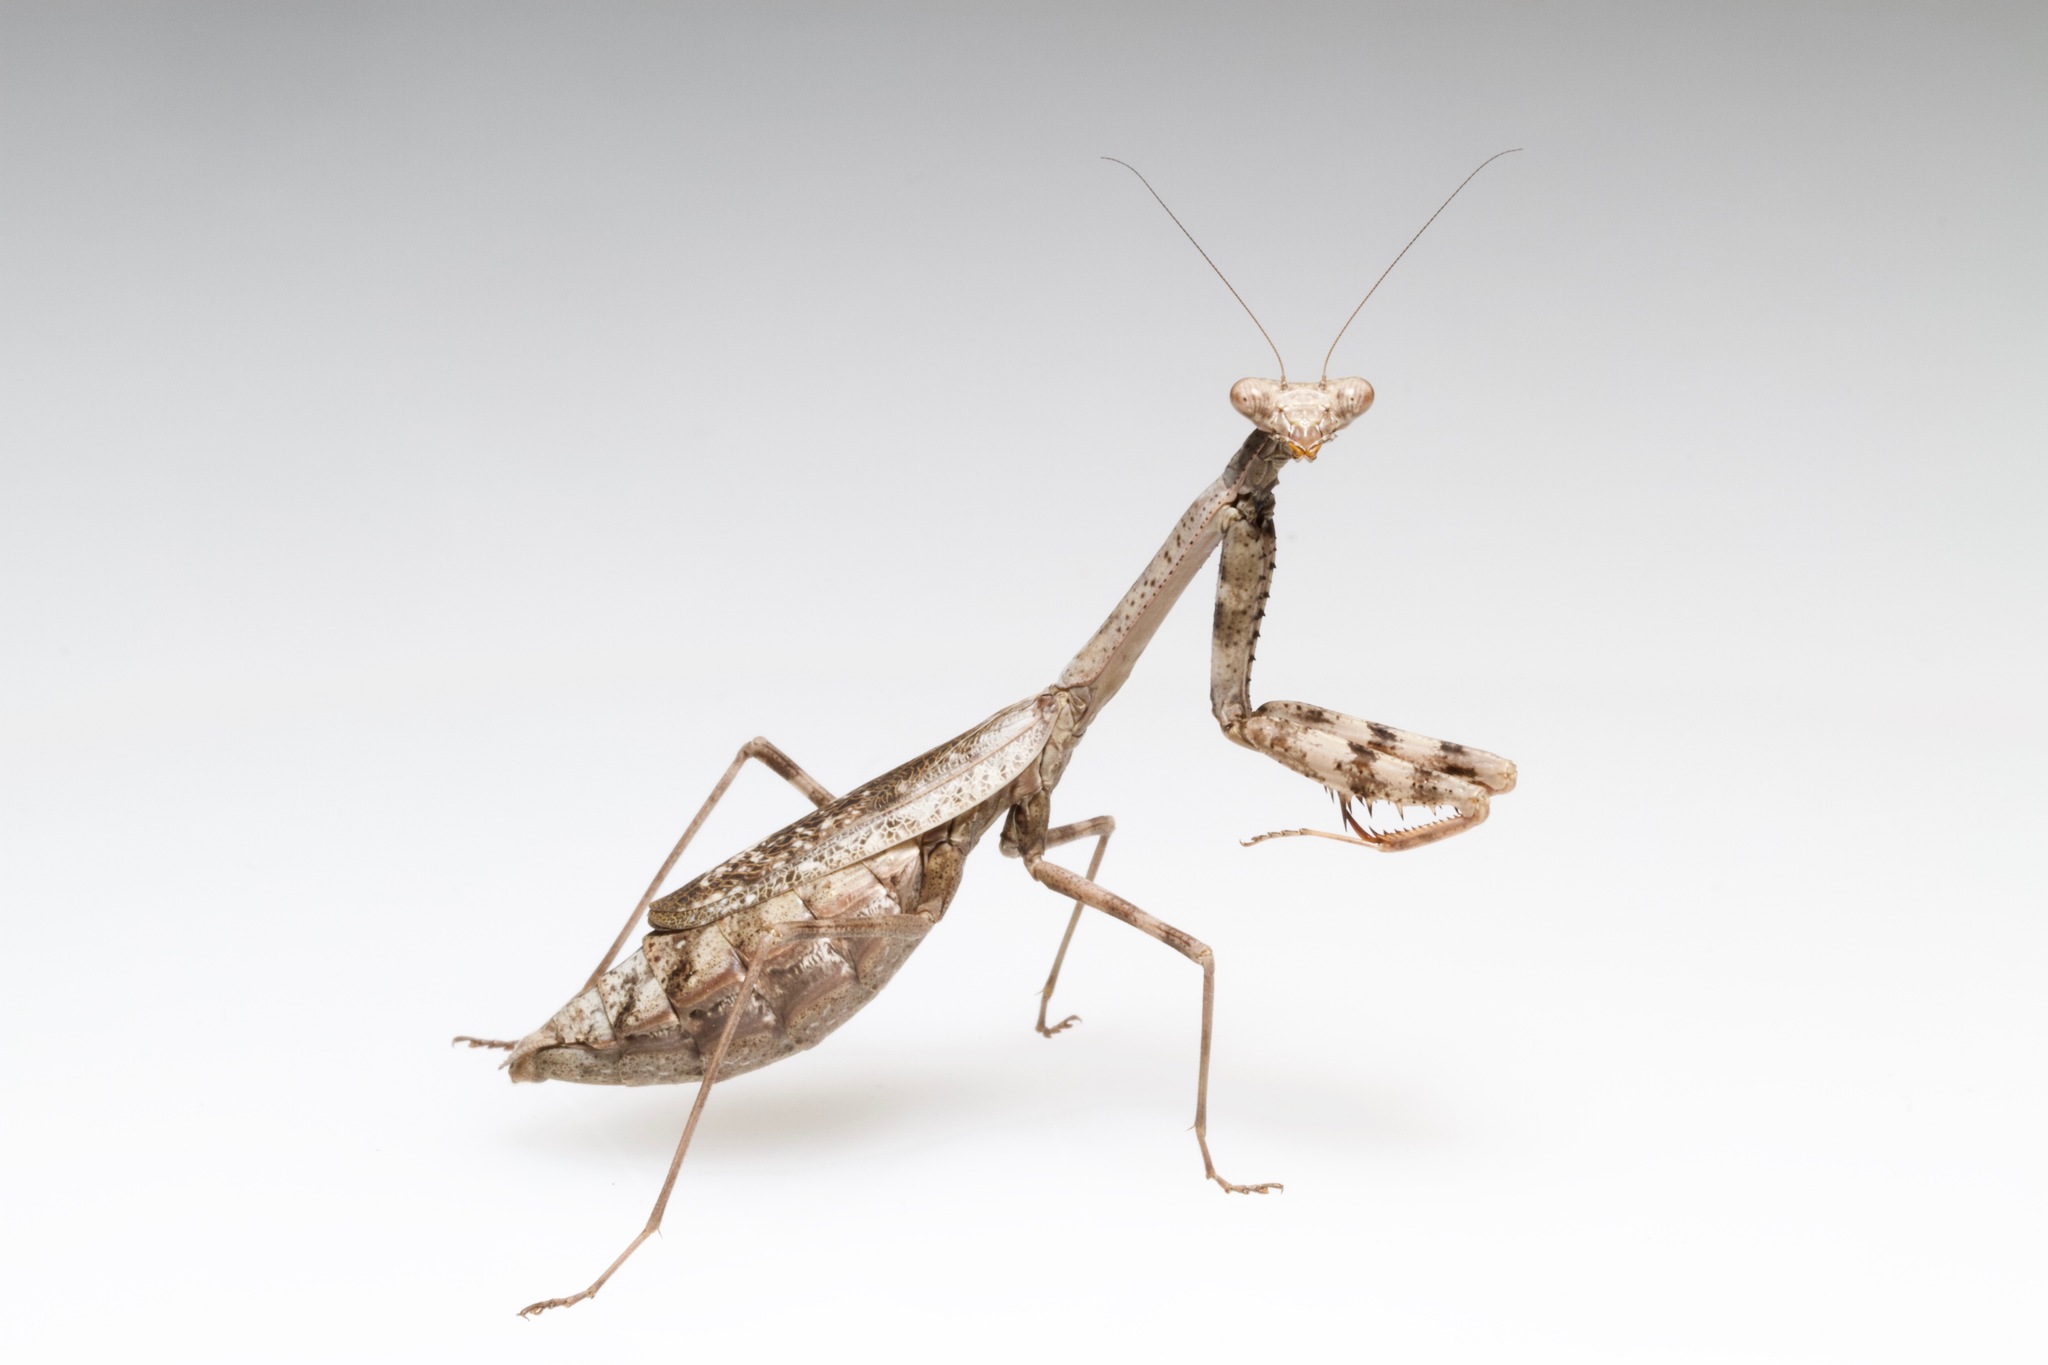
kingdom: Animalia
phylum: Arthropoda
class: Insecta
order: Mantodea
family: Mantidae
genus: Stagmomantis
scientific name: Stagmomantis carolina
